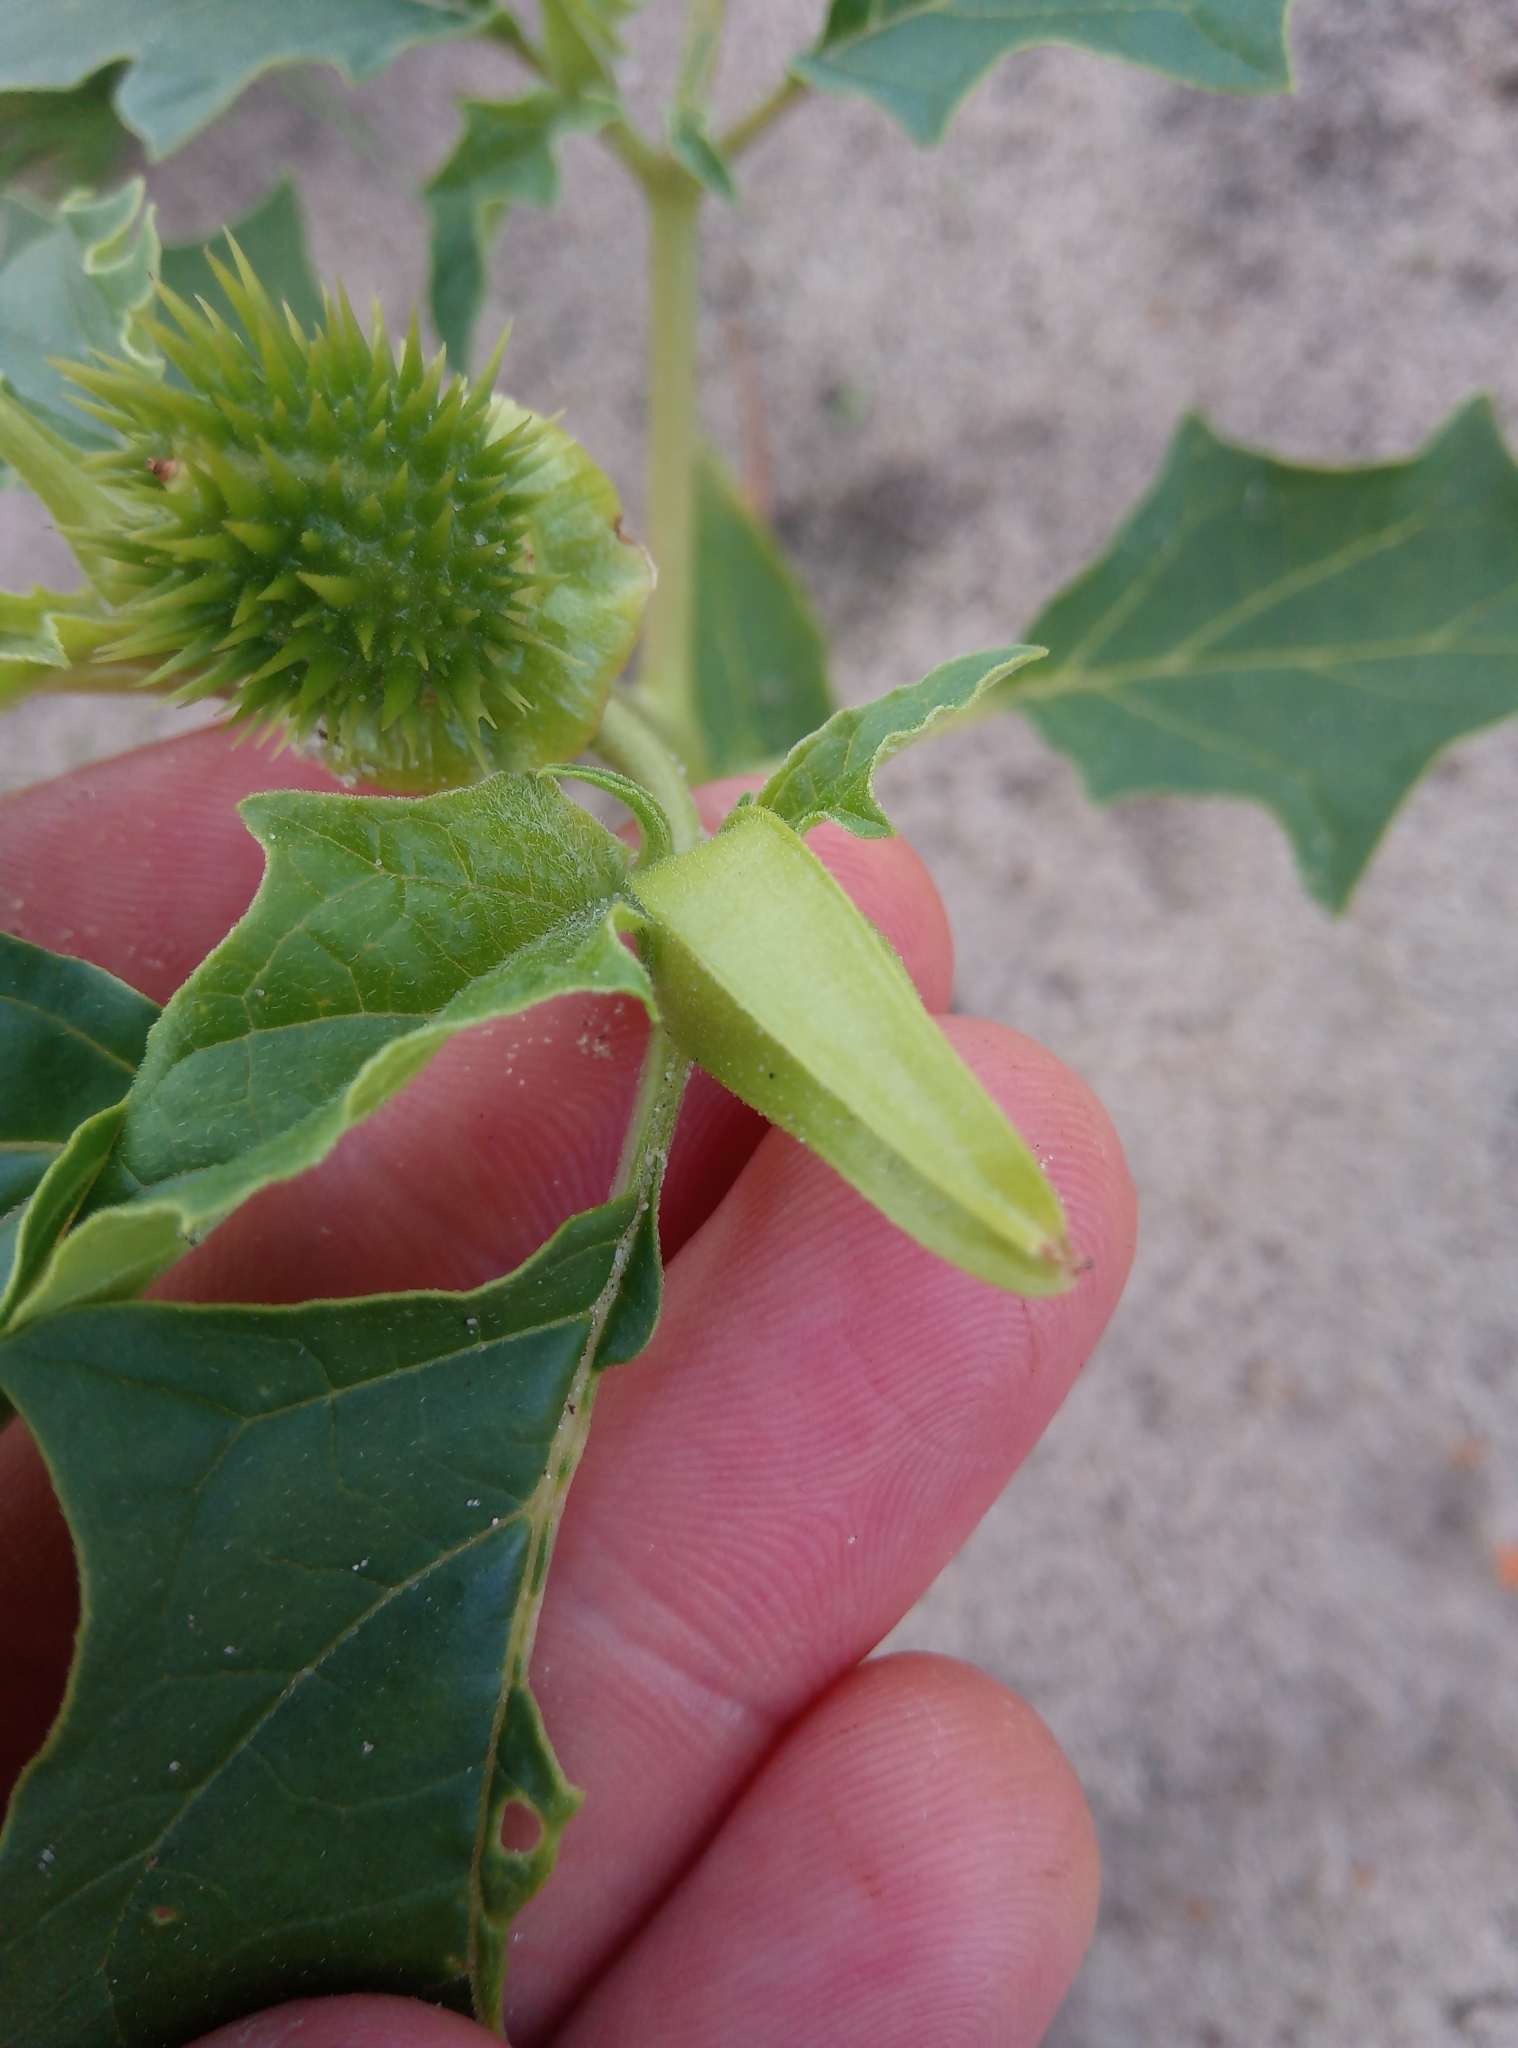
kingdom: Plantae
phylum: Tracheophyta
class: Magnoliopsida
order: Solanales
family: Solanaceae
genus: Datura
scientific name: Datura stramonium
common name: Thorn-apple
